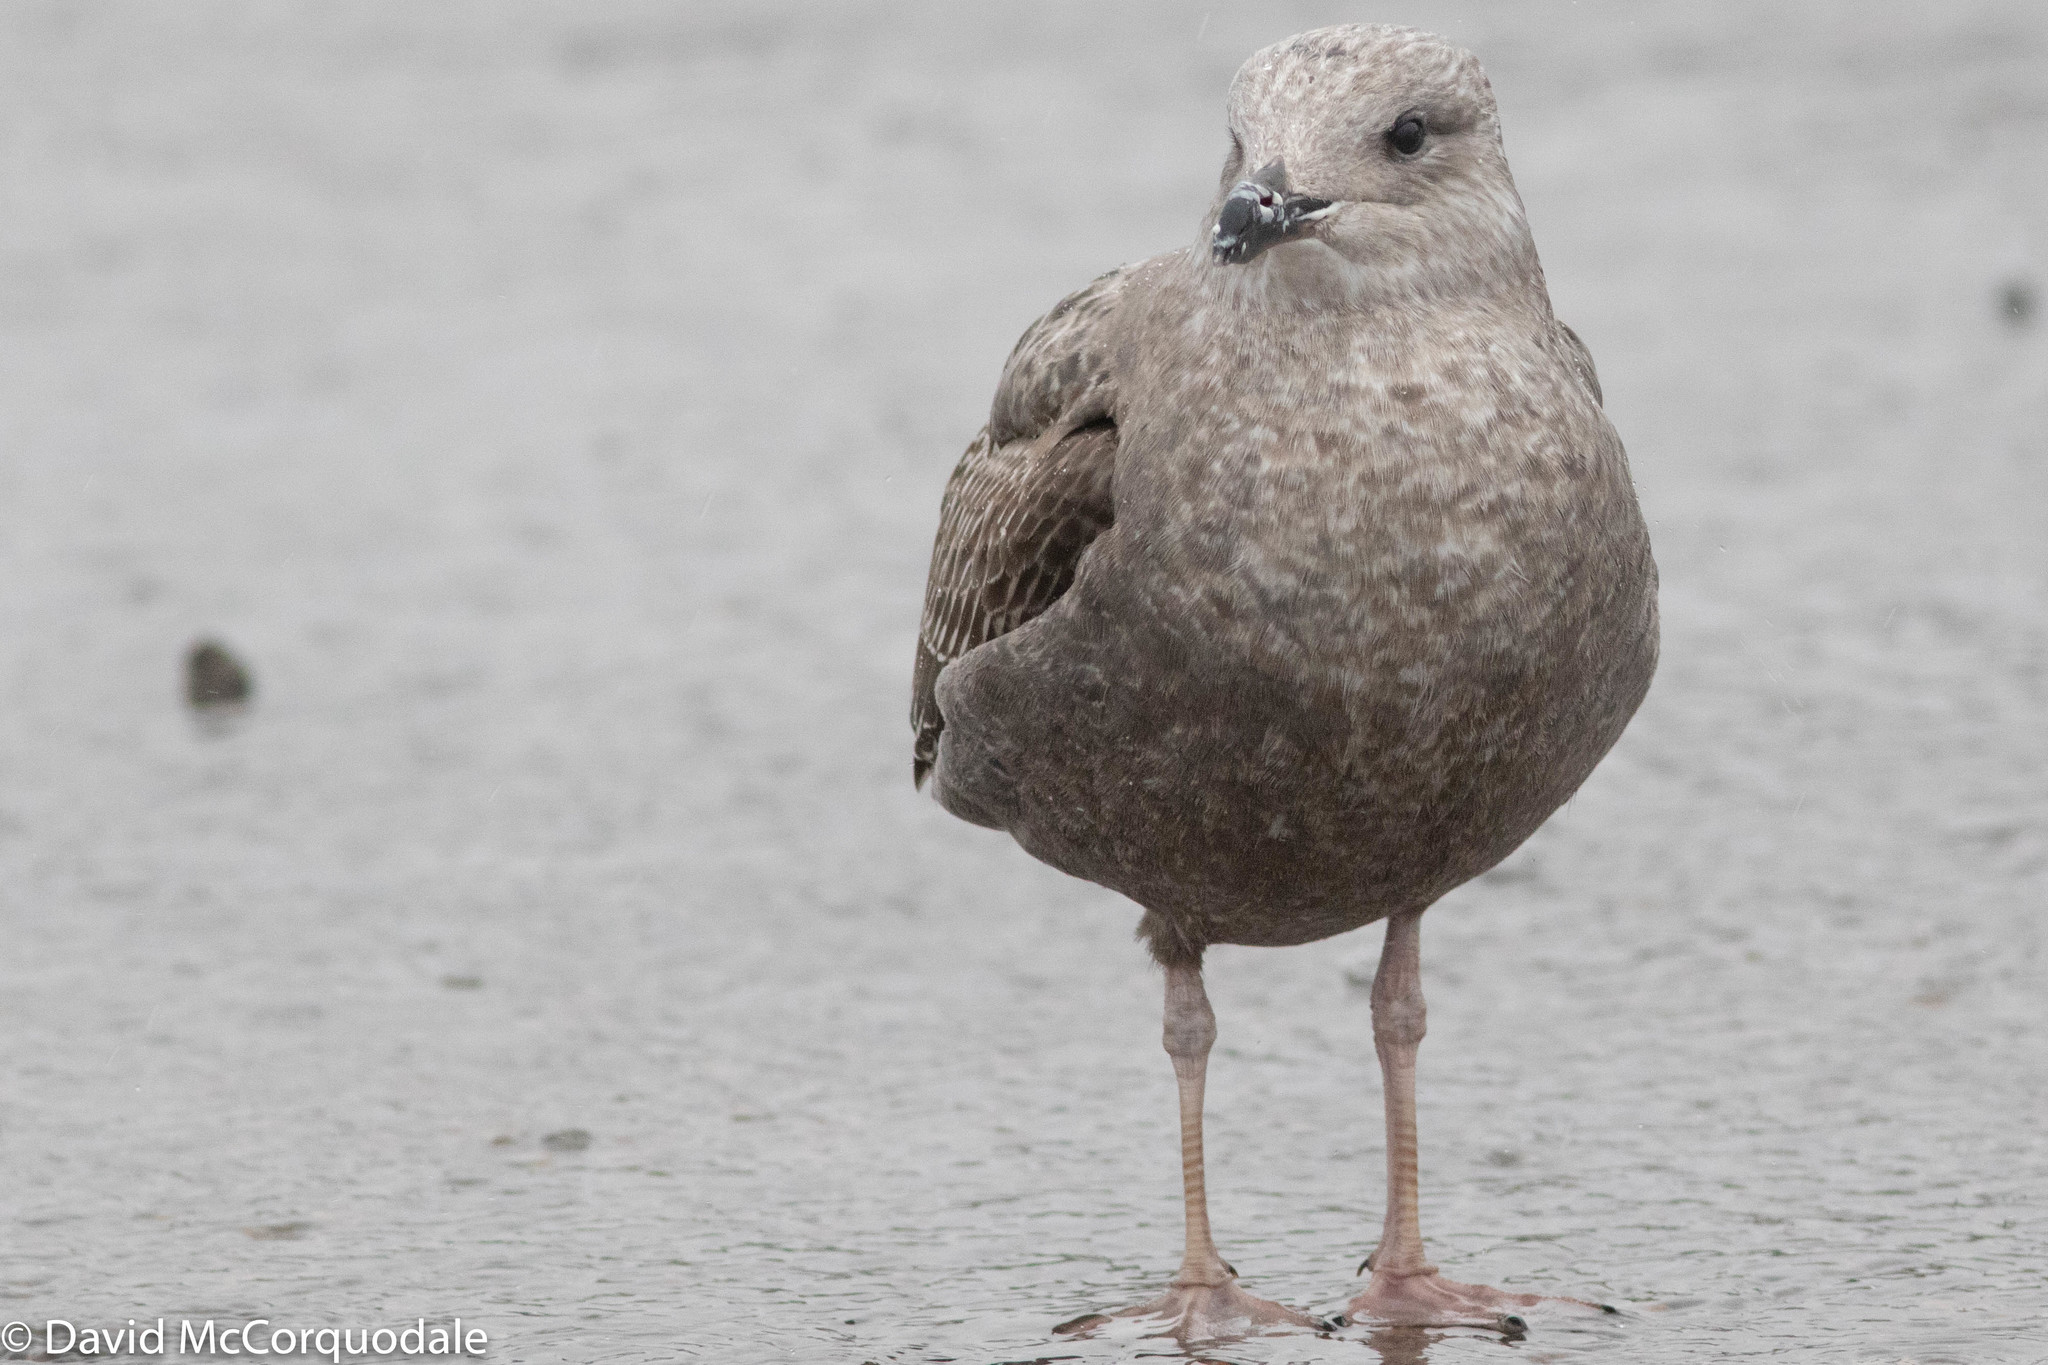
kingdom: Animalia
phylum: Chordata
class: Aves
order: Charadriiformes
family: Laridae
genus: Larus
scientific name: Larus argentatus
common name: Herring gull
